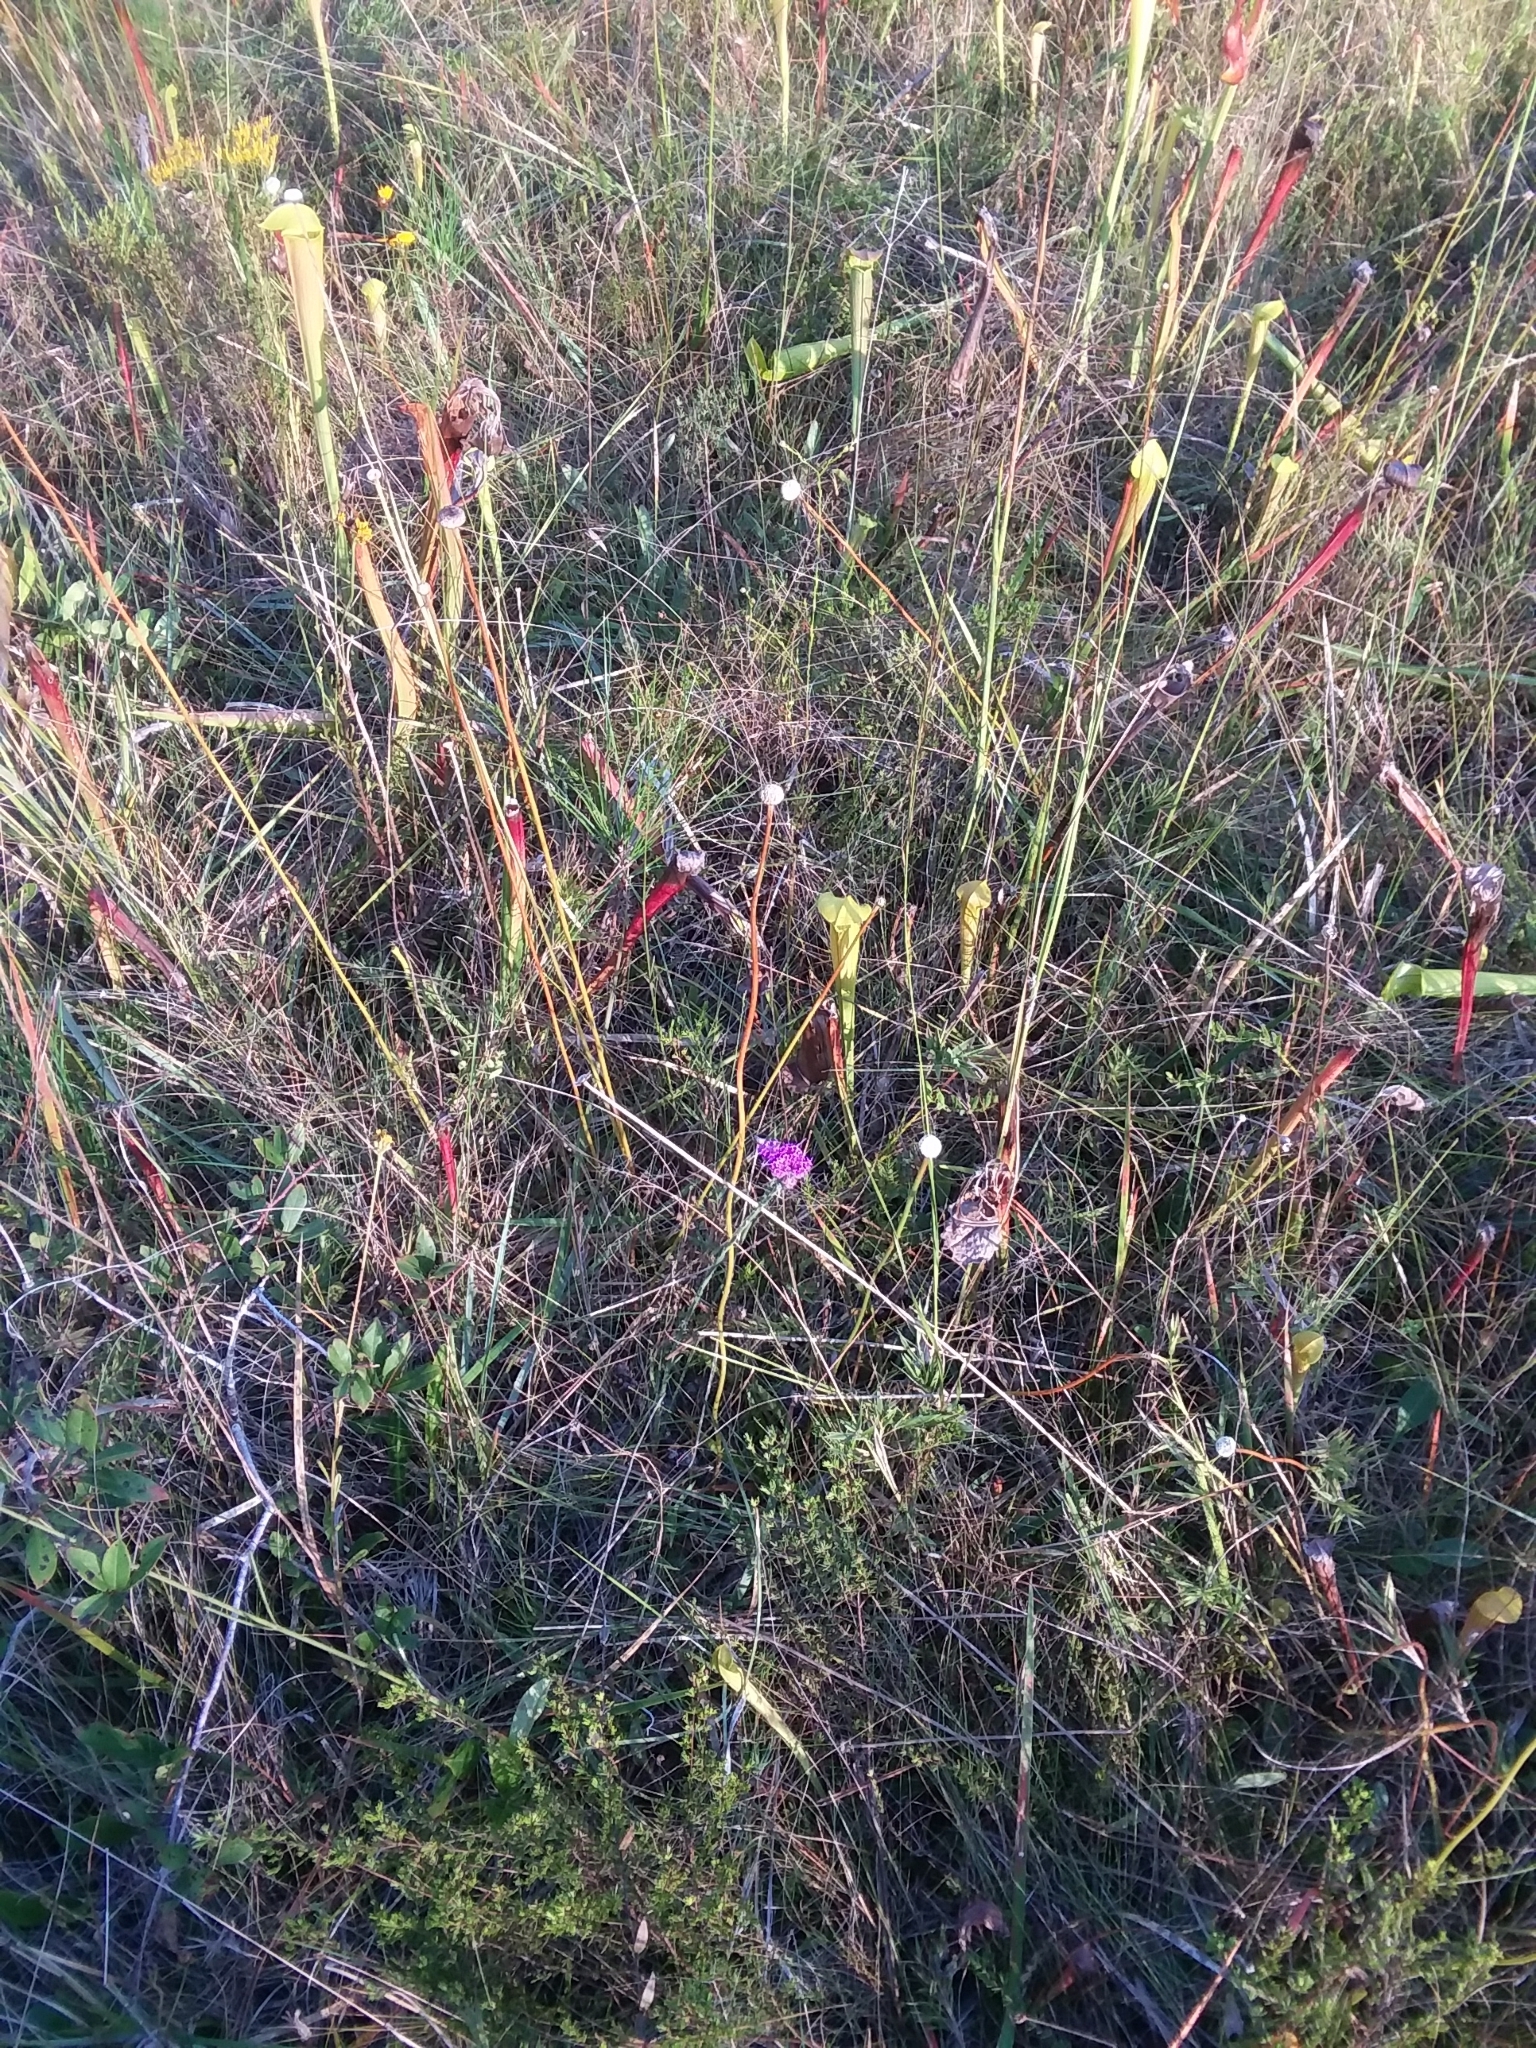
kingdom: Plantae
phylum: Tracheophyta
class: Magnoliopsida
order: Asterales
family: Asteraceae
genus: Carphephorus
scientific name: Carphephorus pseudoliatris
